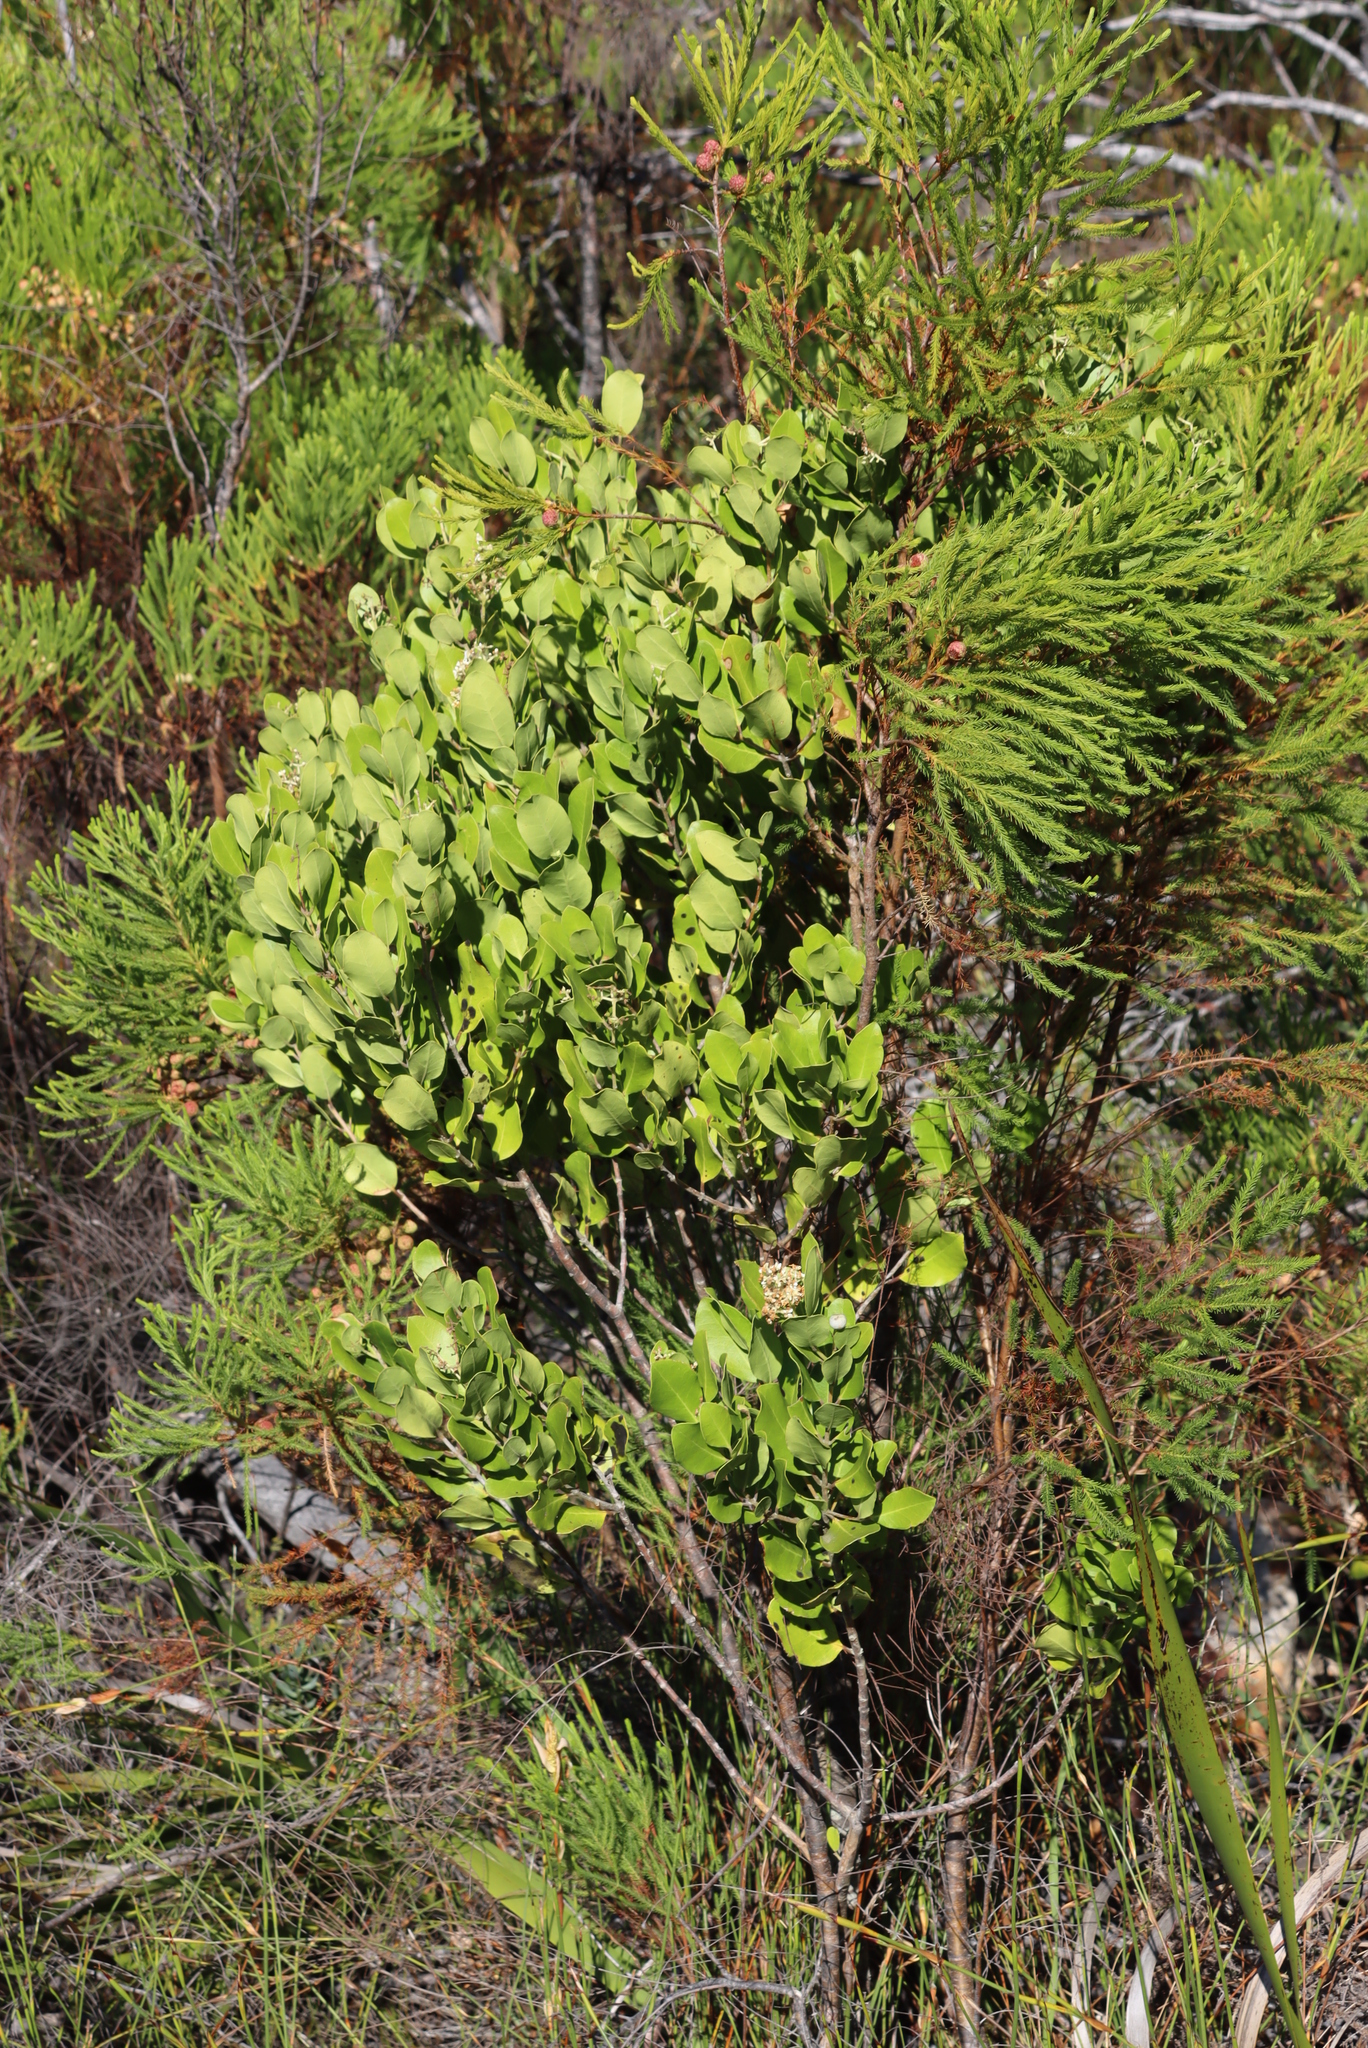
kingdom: Plantae
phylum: Tracheophyta
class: Magnoliopsida
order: Lamiales
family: Oleaceae
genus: Olea
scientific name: Olea capensis
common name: Black ironwood
